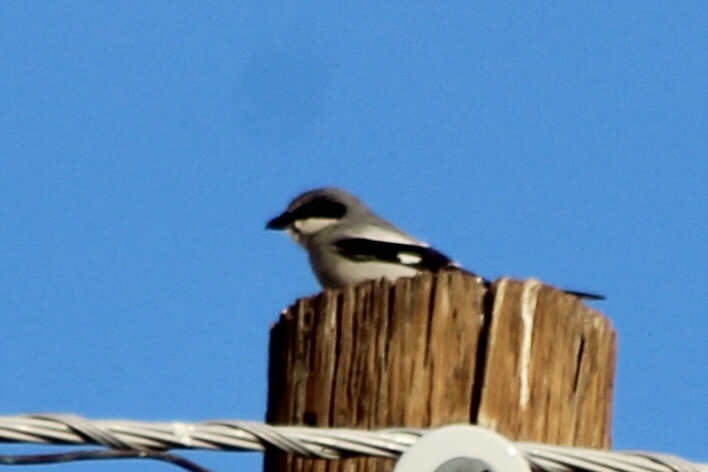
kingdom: Animalia
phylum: Chordata
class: Aves
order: Passeriformes
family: Laniidae
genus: Lanius
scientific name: Lanius ludovicianus
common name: Loggerhead shrike
